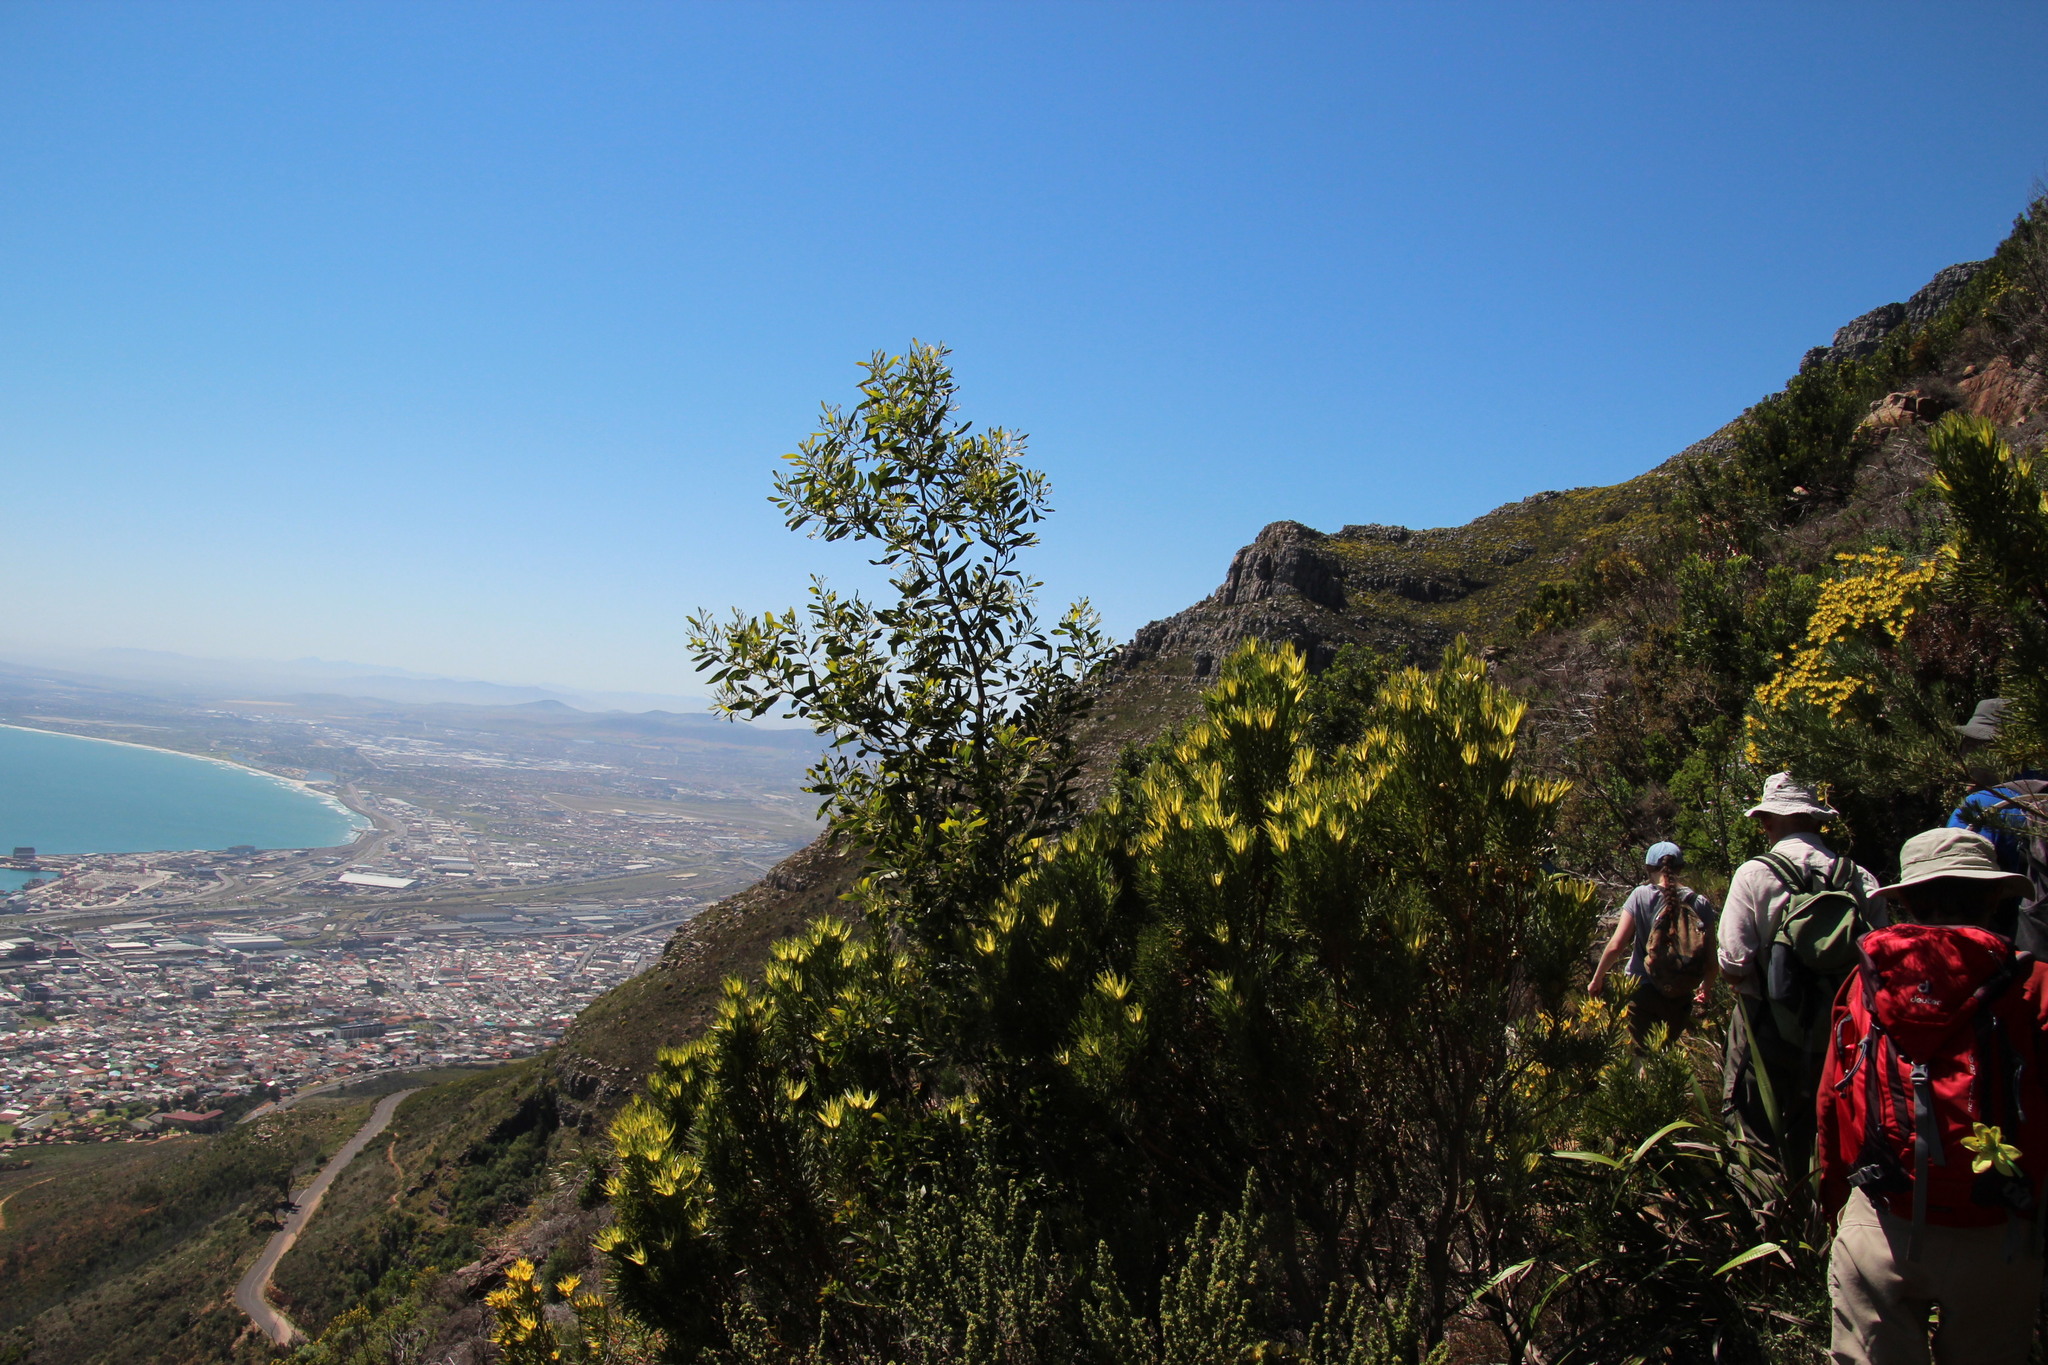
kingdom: Plantae
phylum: Tracheophyta
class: Magnoliopsida
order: Fabales
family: Fabaceae
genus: Acacia
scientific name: Acacia melanoxylon
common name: Blackwood
